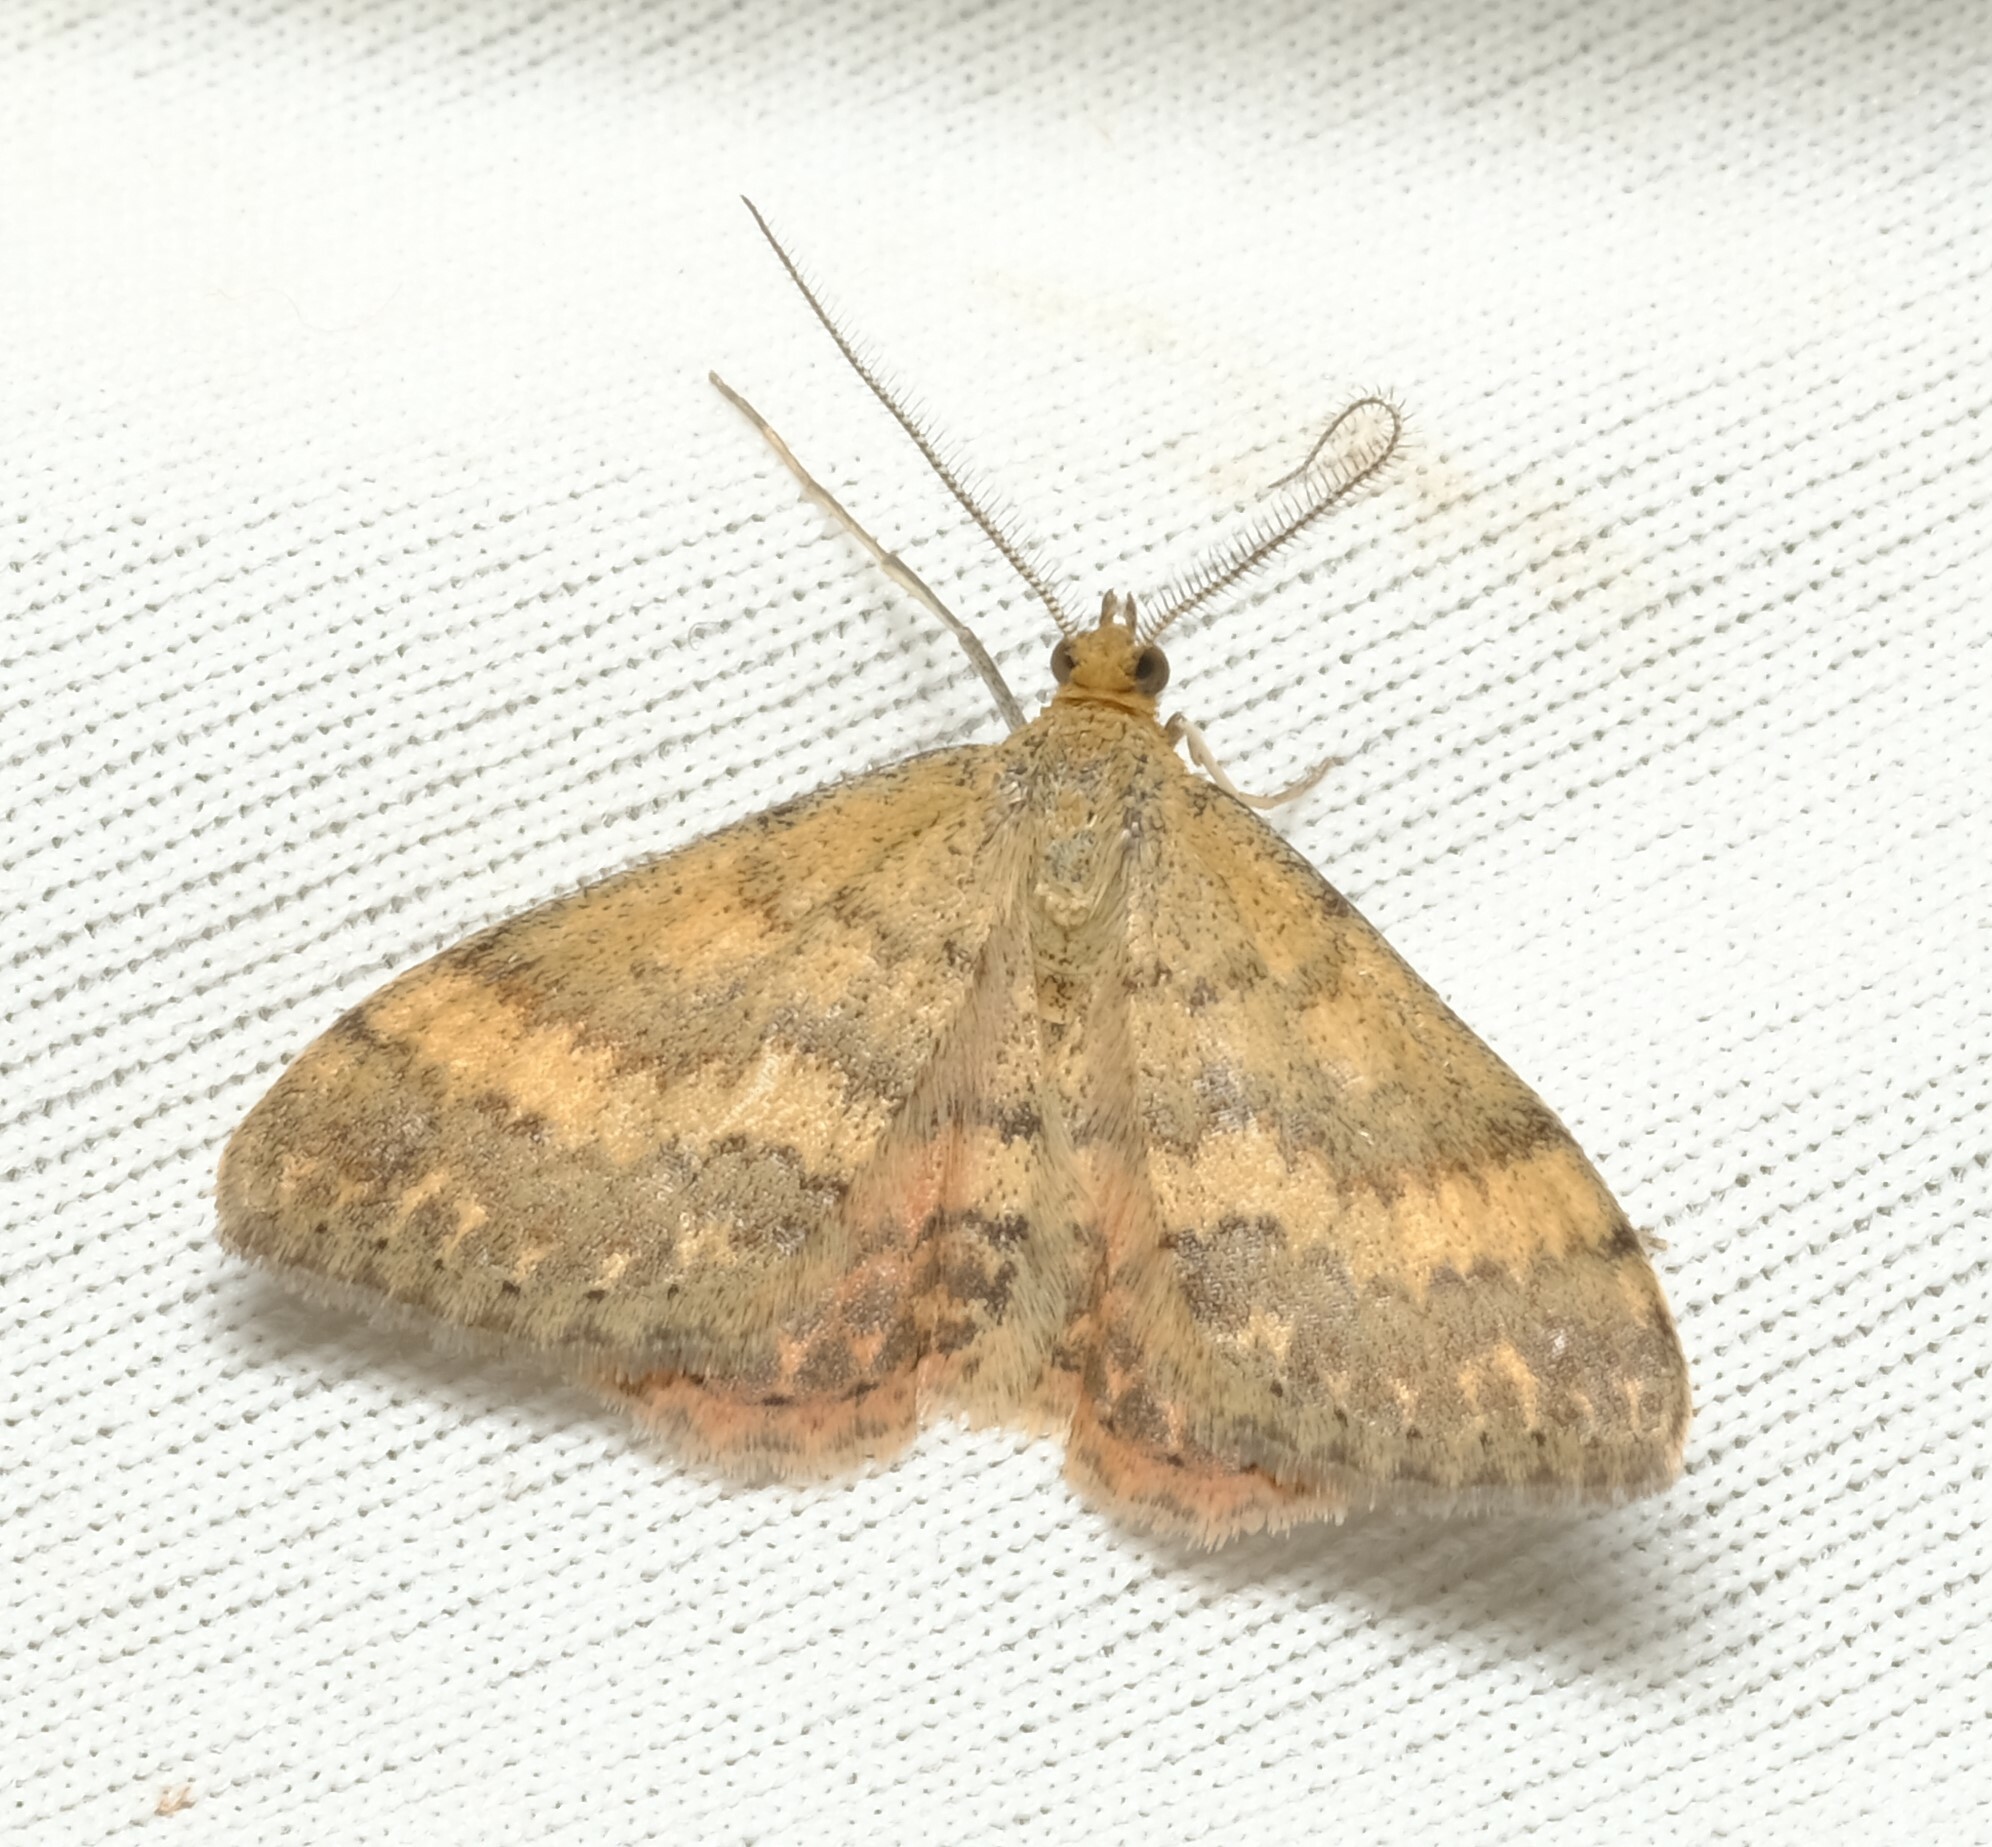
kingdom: Animalia
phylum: Arthropoda
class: Insecta
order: Lepidoptera
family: Geometridae
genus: Scopula
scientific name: Scopula rubraria
